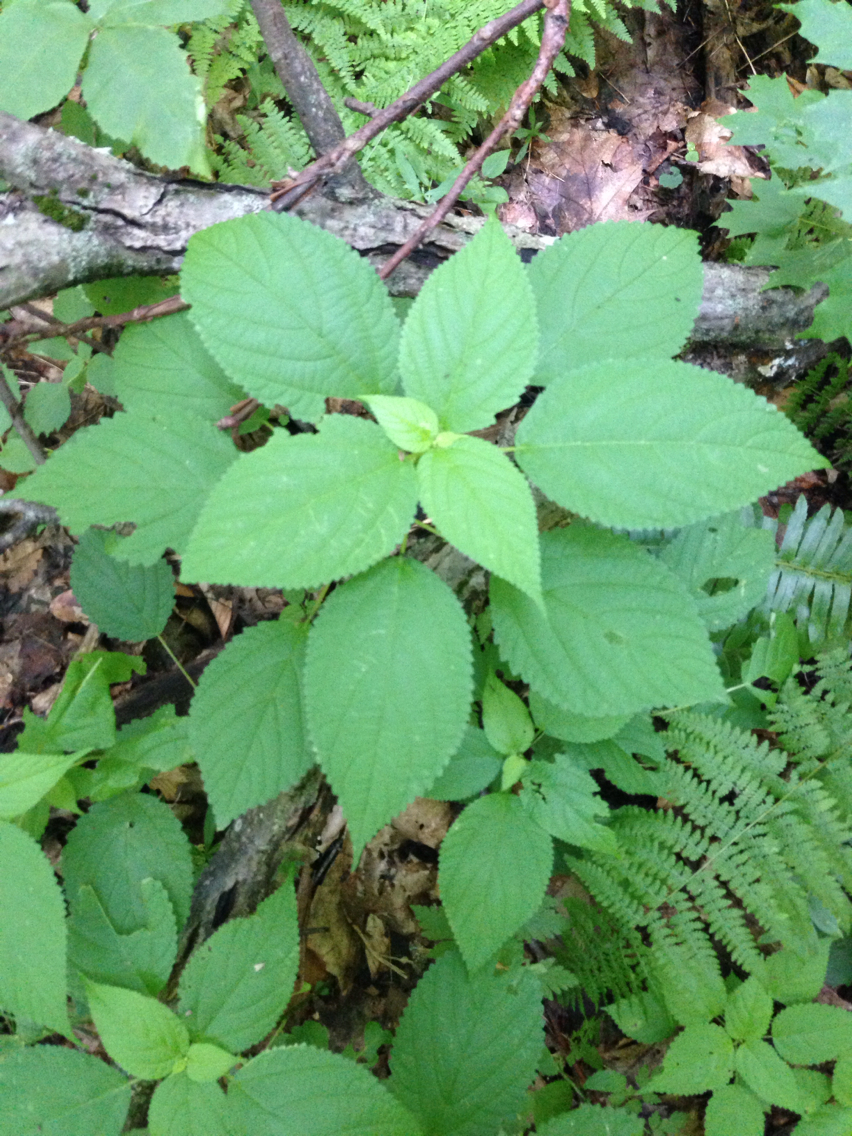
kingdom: Plantae
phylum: Tracheophyta
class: Magnoliopsida
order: Rosales
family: Urticaceae
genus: Laportea
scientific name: Laportea canadensis
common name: Canada nettle
